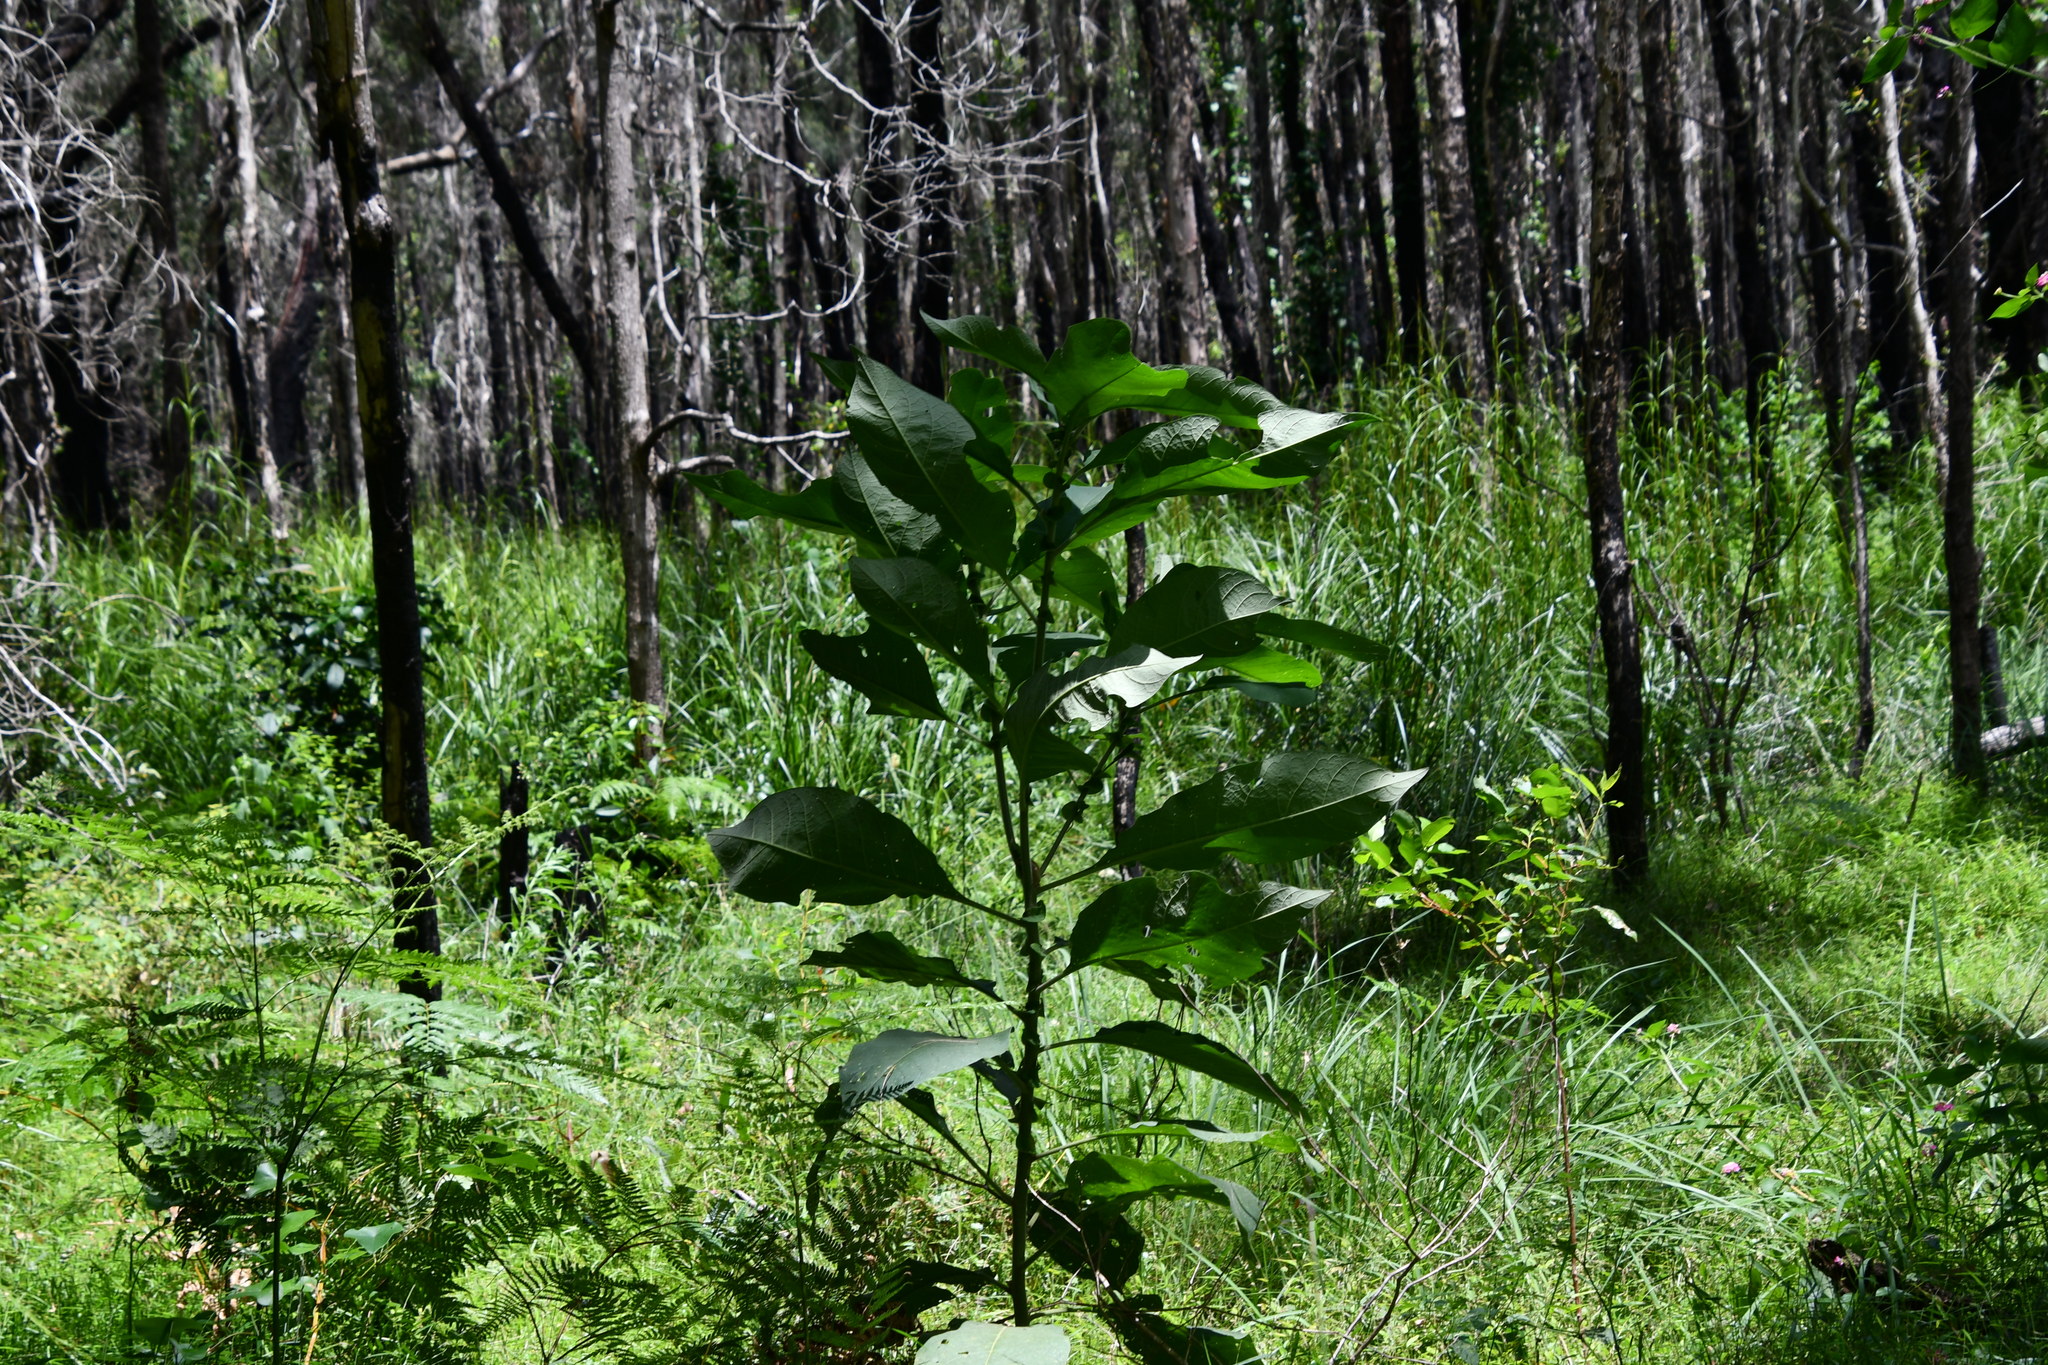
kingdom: Plantae
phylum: Tracheophyta
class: Magnoliopsida
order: Solanales
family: Solanaceae
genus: Solanum
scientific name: Solanum mauritianum
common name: Earleaf nightshade
